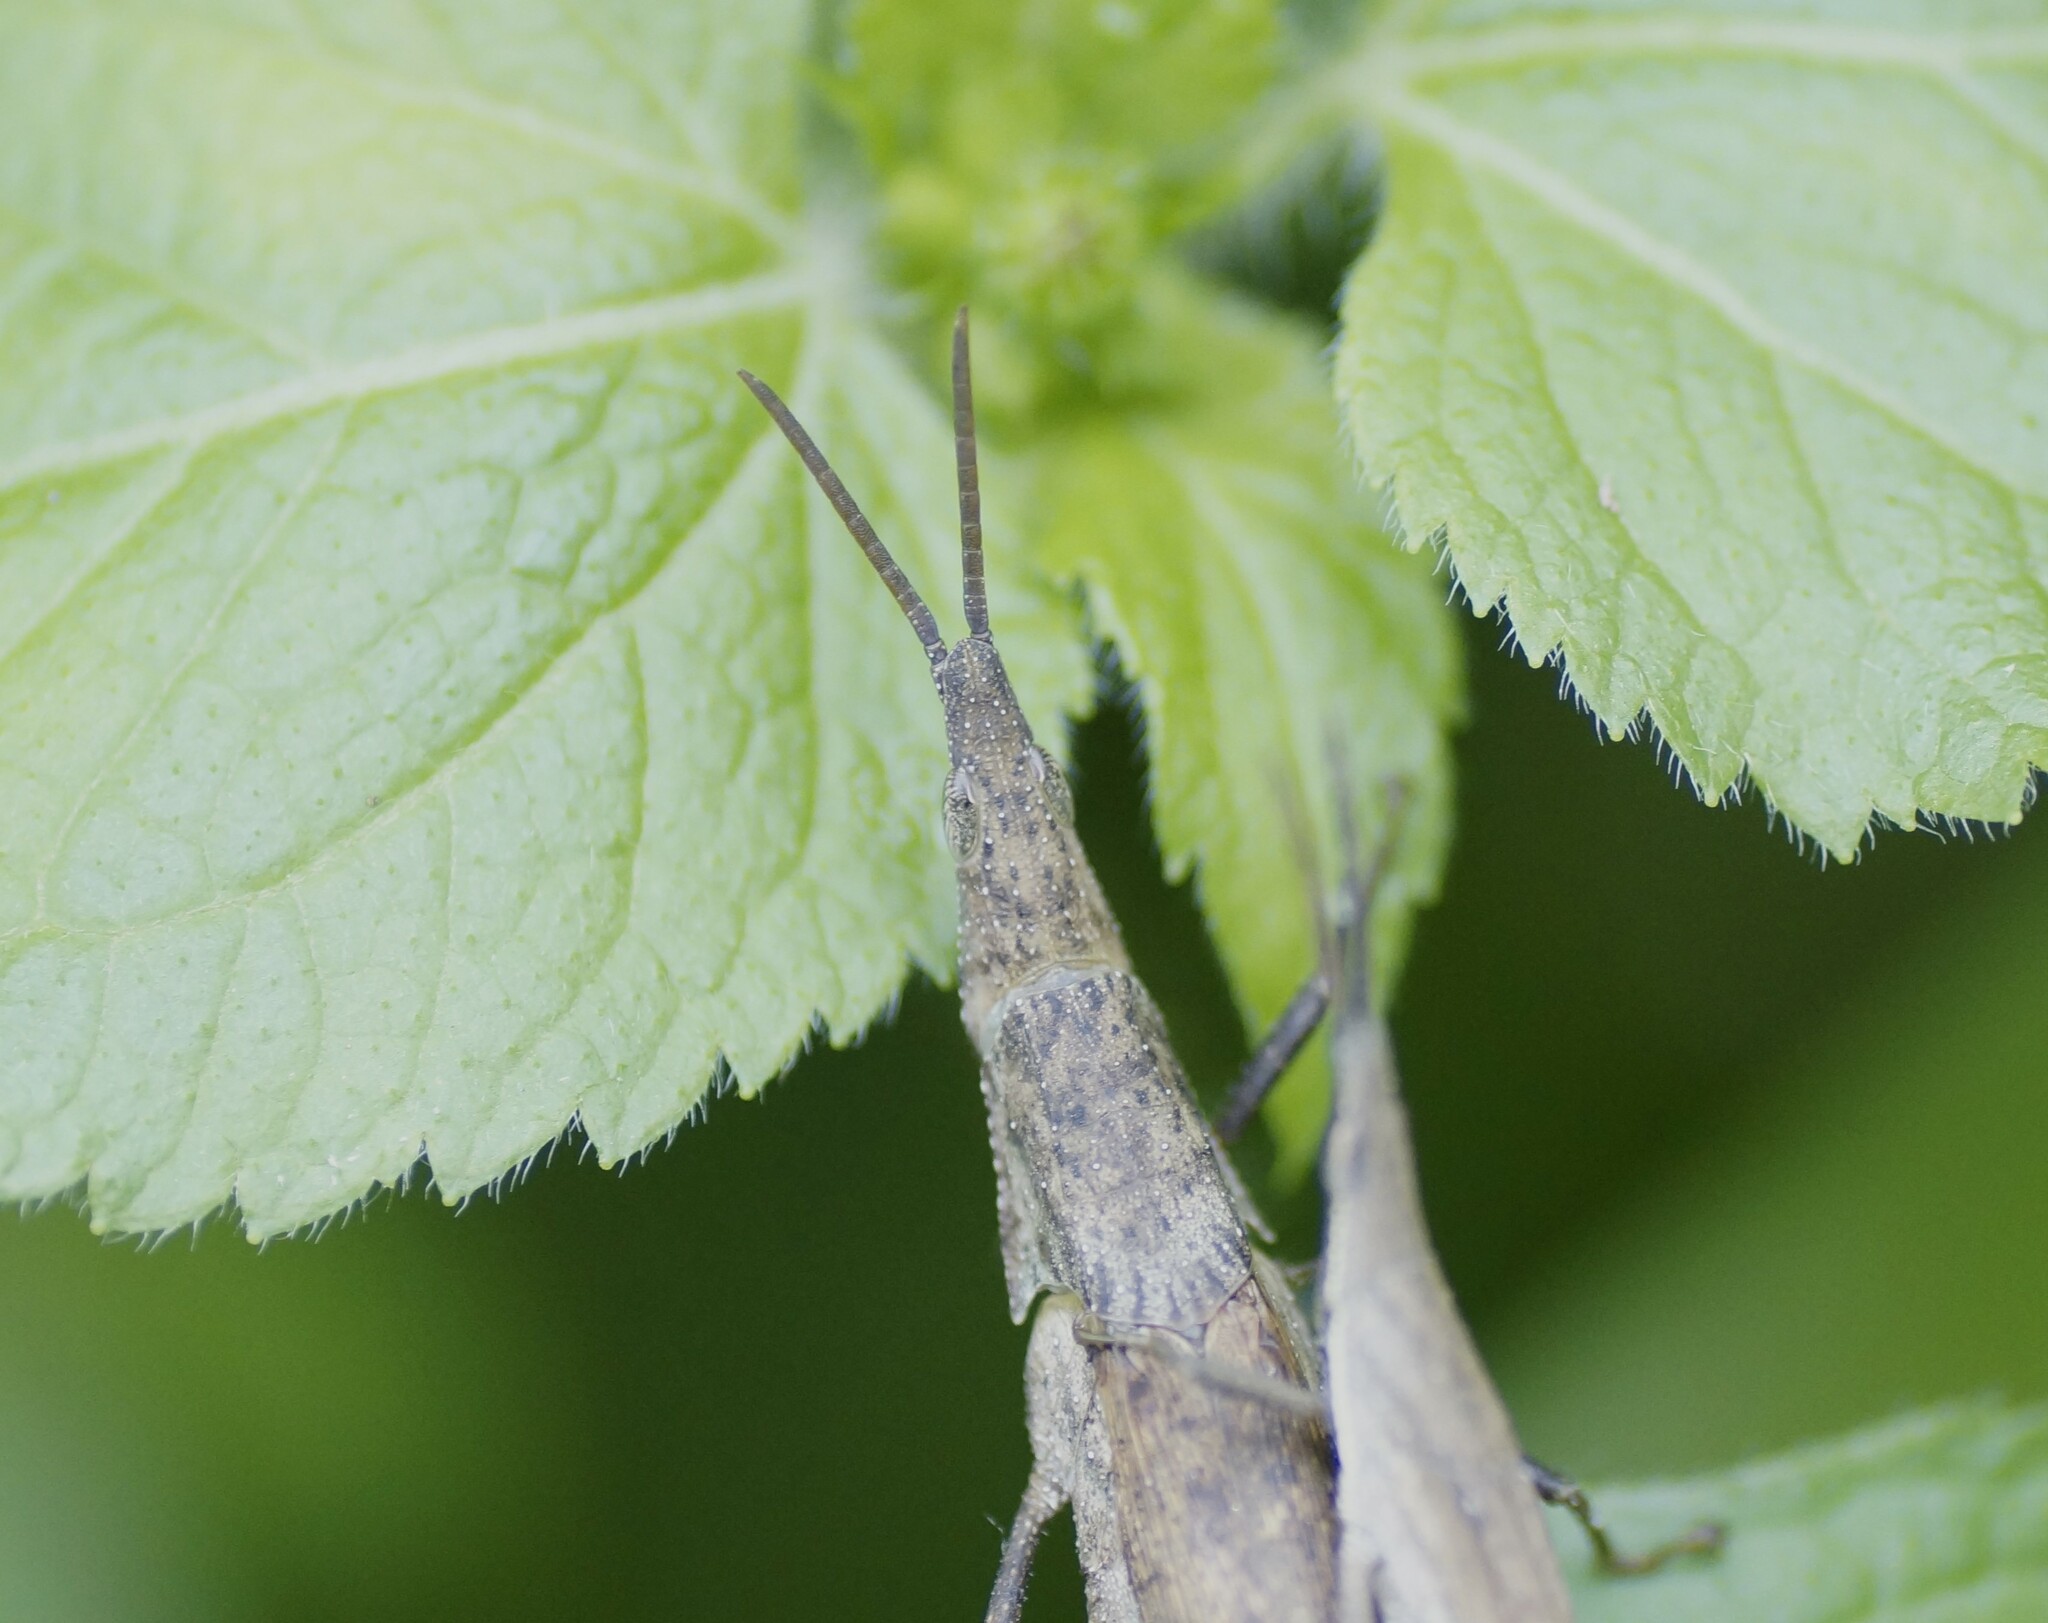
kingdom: Animalia
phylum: Arthropoda
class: Insecta
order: Orthoptera
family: Pyrgomorphidae
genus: Atractomorpha
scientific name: Atractomorpha similis
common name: Northern grass pyrgomorph
